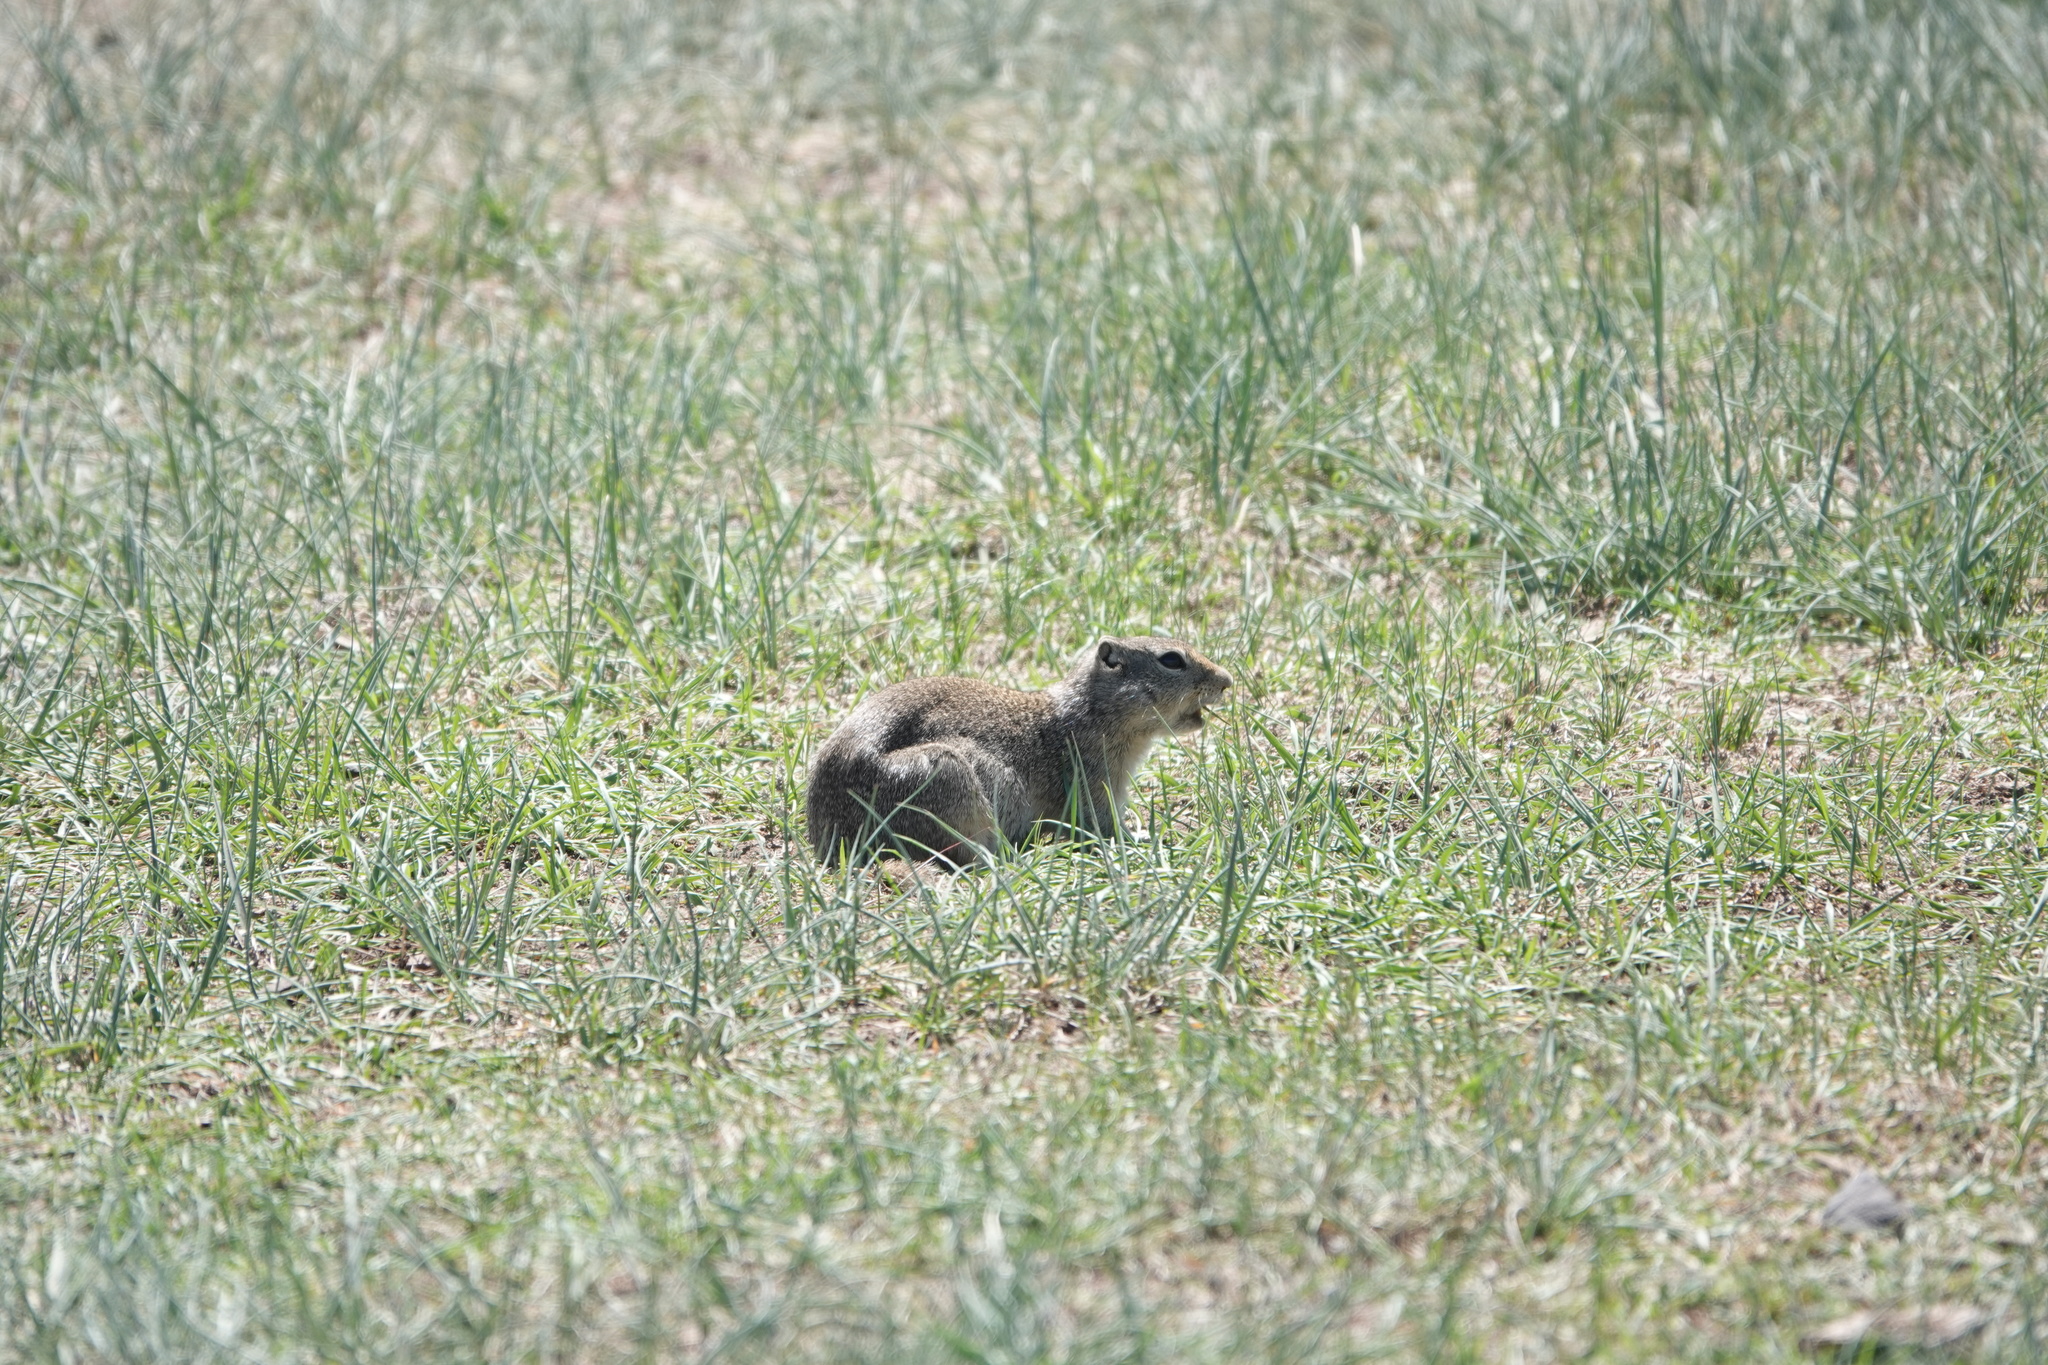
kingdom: Animalia
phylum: Chordata
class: Mammalia
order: Rodentia
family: Sciuridae
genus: Urocitellus
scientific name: Urocitellus elegans
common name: Wyoming ground squirrel
